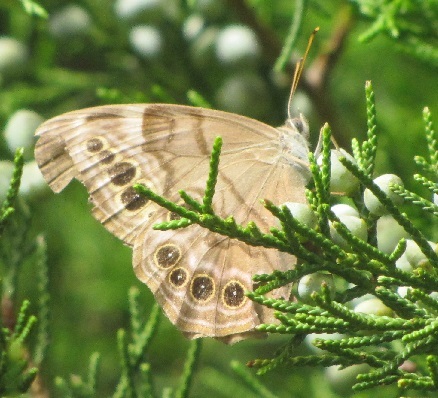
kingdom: Animalia
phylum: Arthropoda
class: Insecta
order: Lepidoptera
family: Nymphalidae
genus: Lethe
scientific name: Lethe anthedon
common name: Northern pearly-eye
